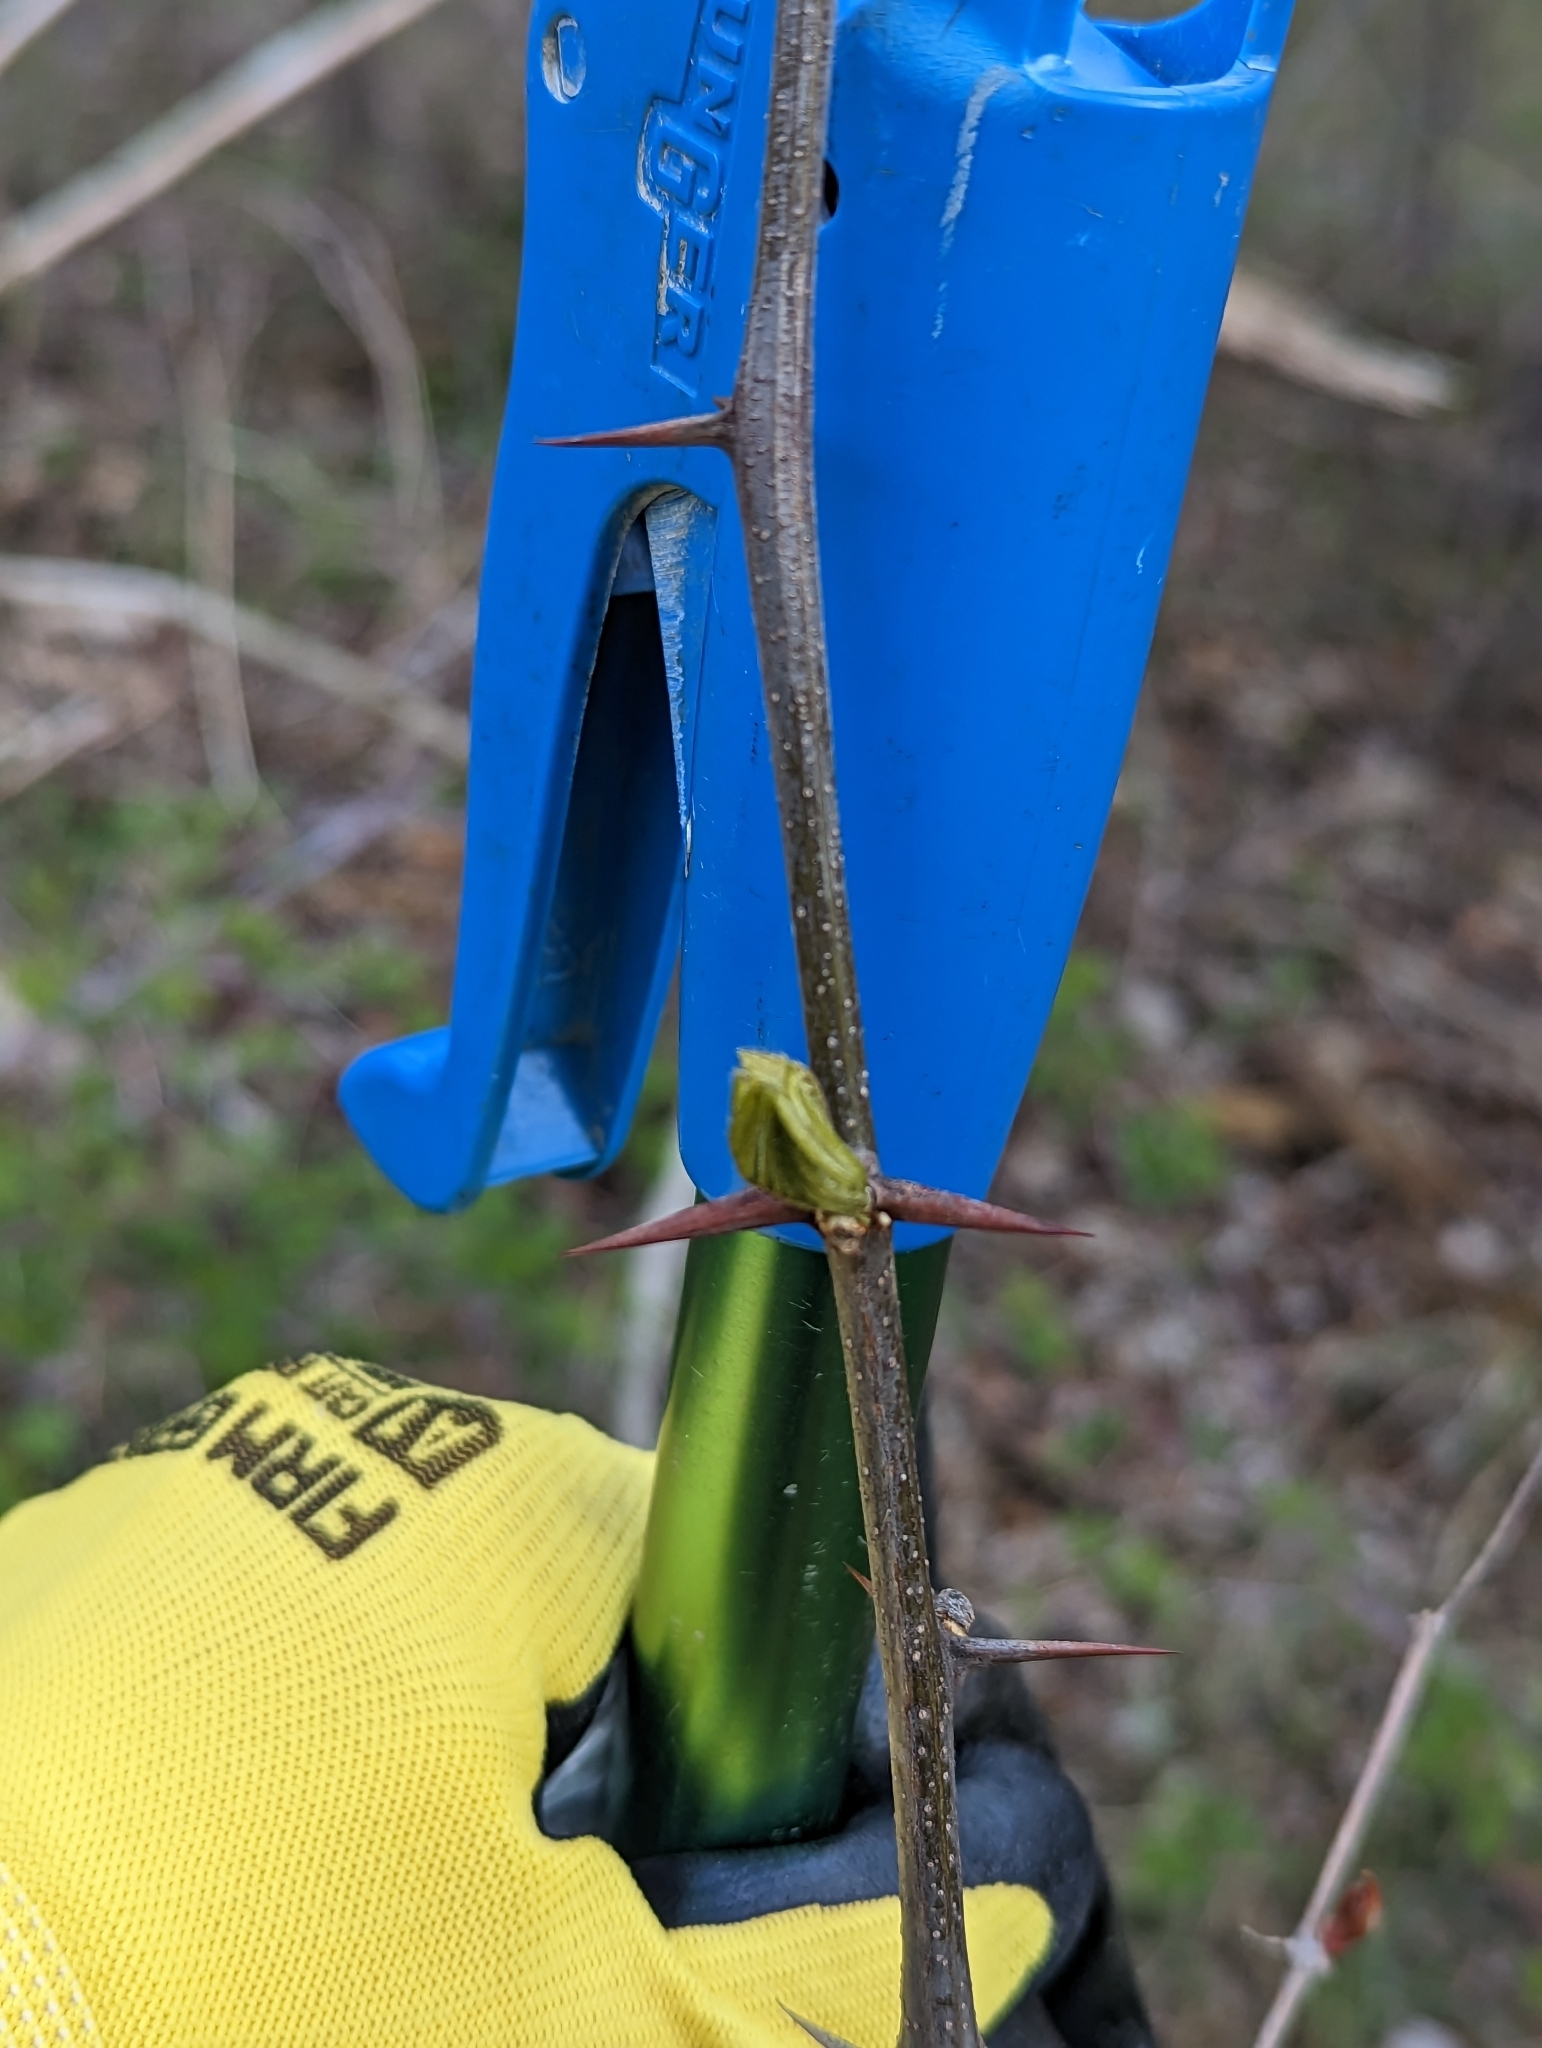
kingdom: Plantae
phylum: Tracheophyta
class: Magnoliopsida
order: Fabales
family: Fabaceae
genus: Robinia
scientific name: Robinia pseudoacacia
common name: Black locust
